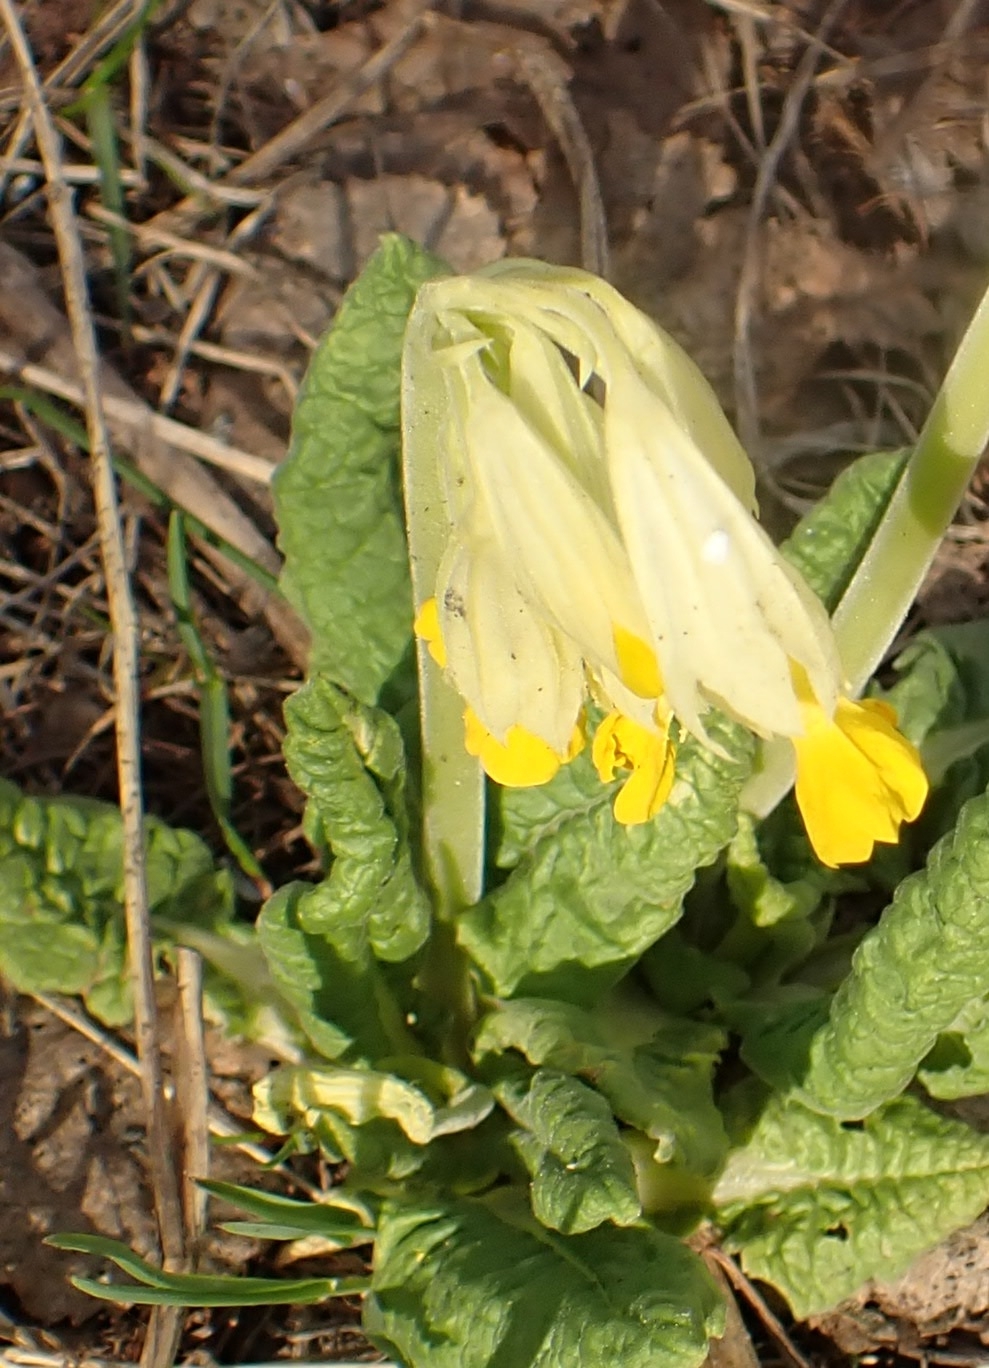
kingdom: Plantae
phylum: Tracheophyta
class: Magnoliopsida
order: Ericales
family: Primulaceae
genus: Primula
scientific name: Primula veris
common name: Cowslip
